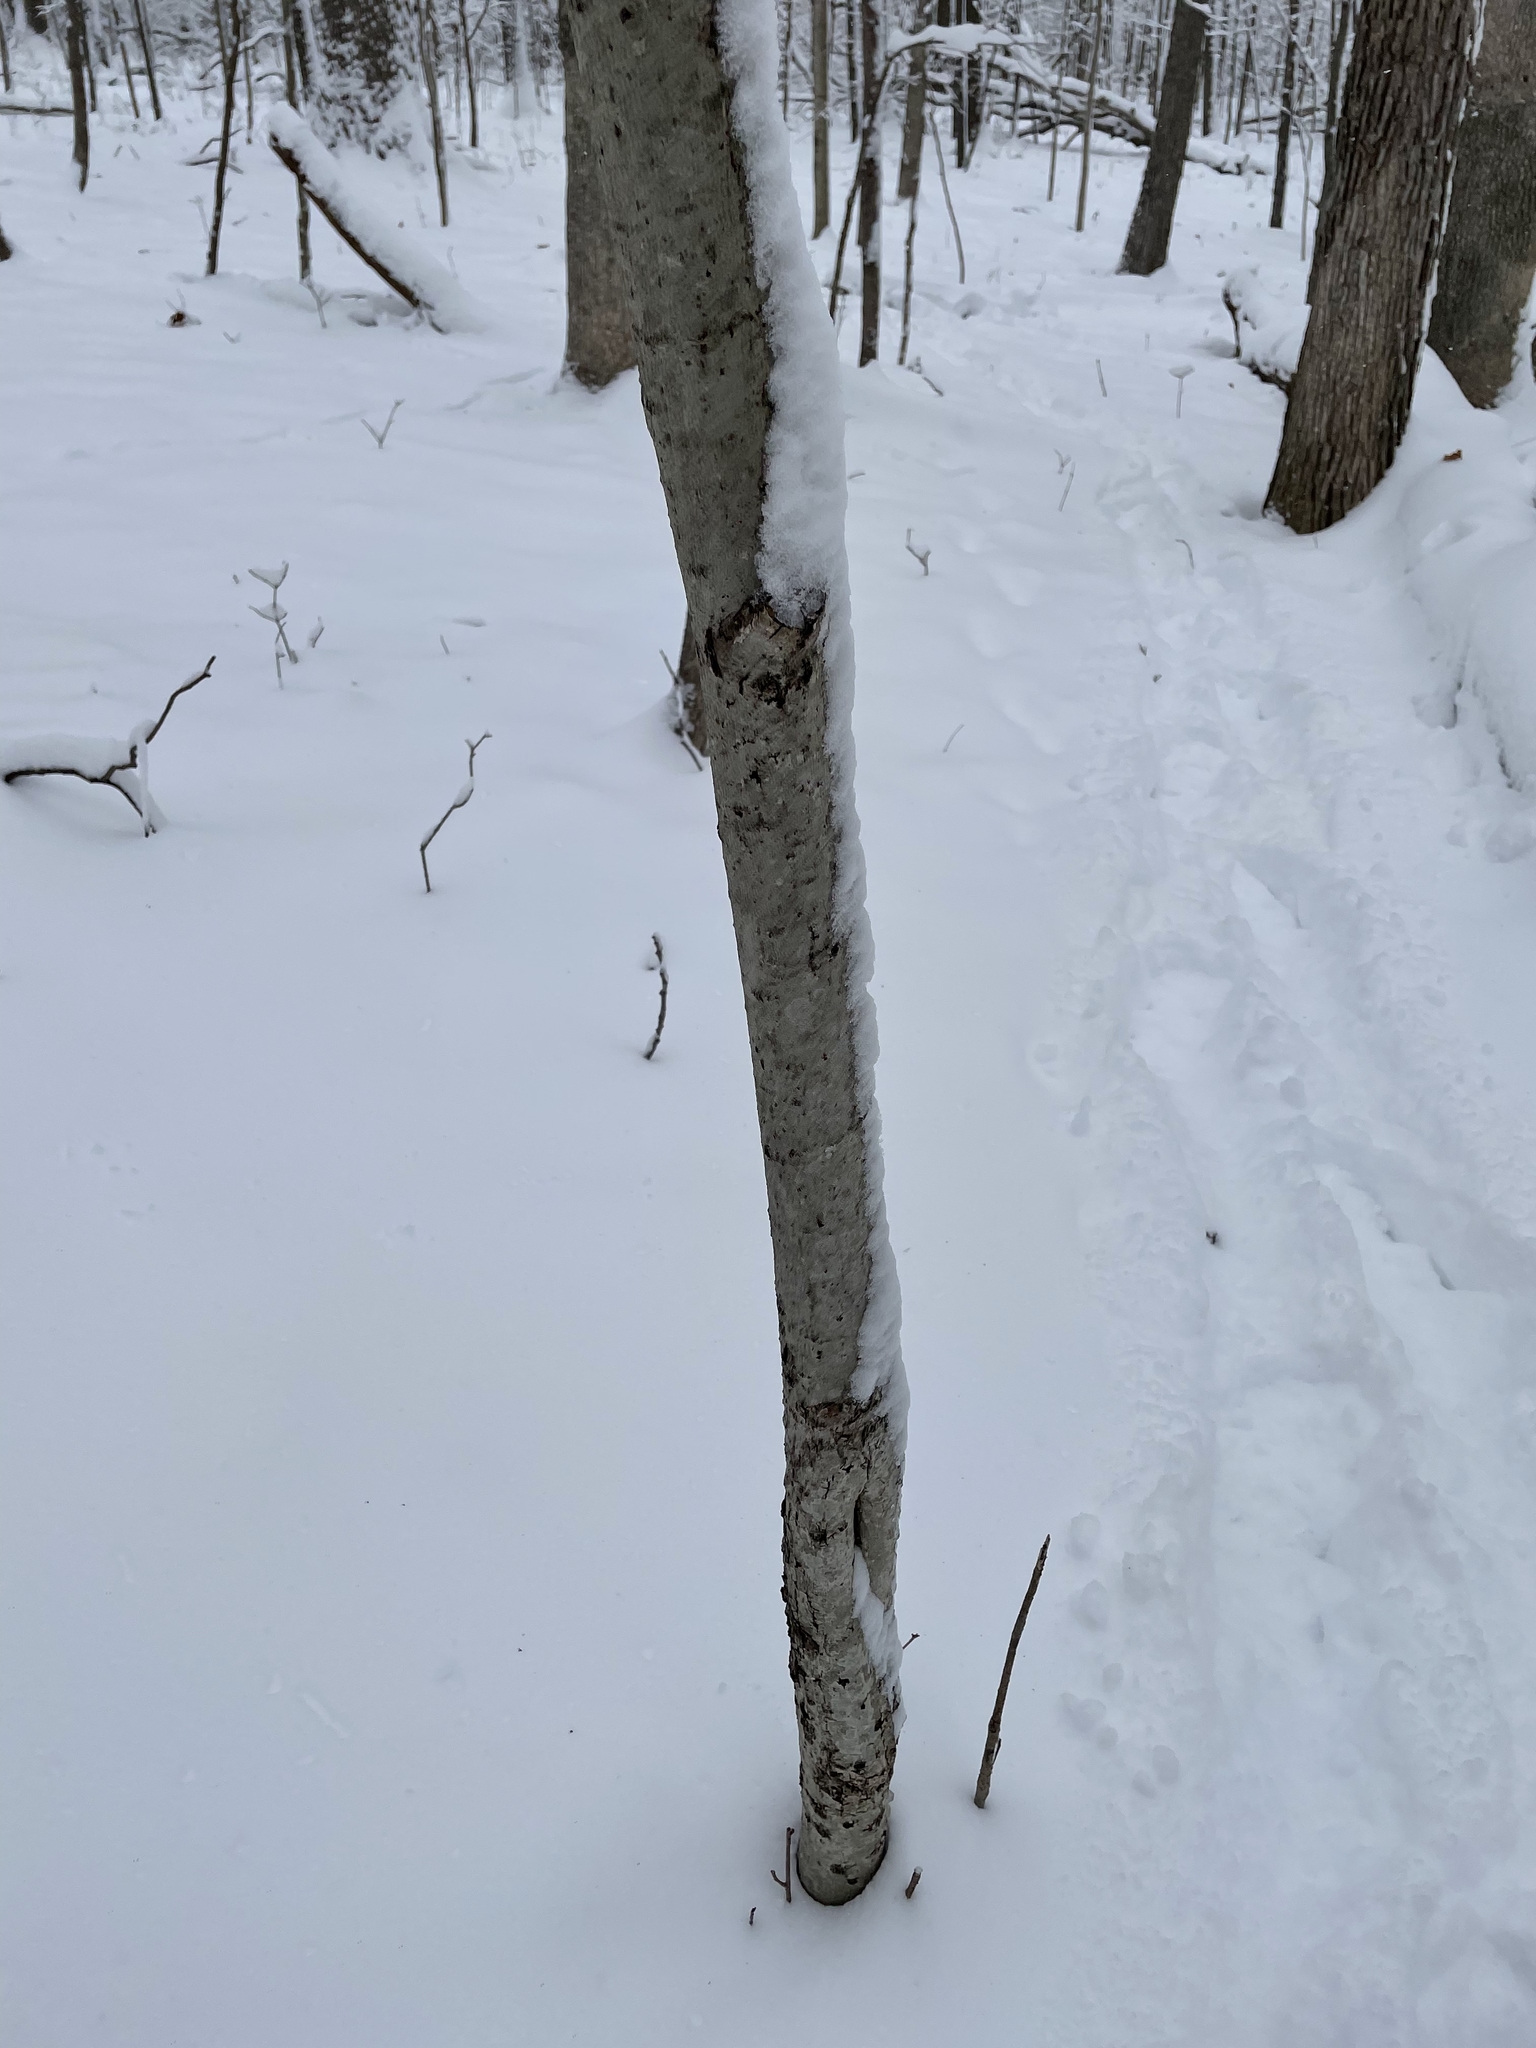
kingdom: Plantae
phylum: Tracheophyta
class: Magnoliopsida
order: Malvales
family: Malvaceae
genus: Tilia
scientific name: Tilia americana
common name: Basswood
